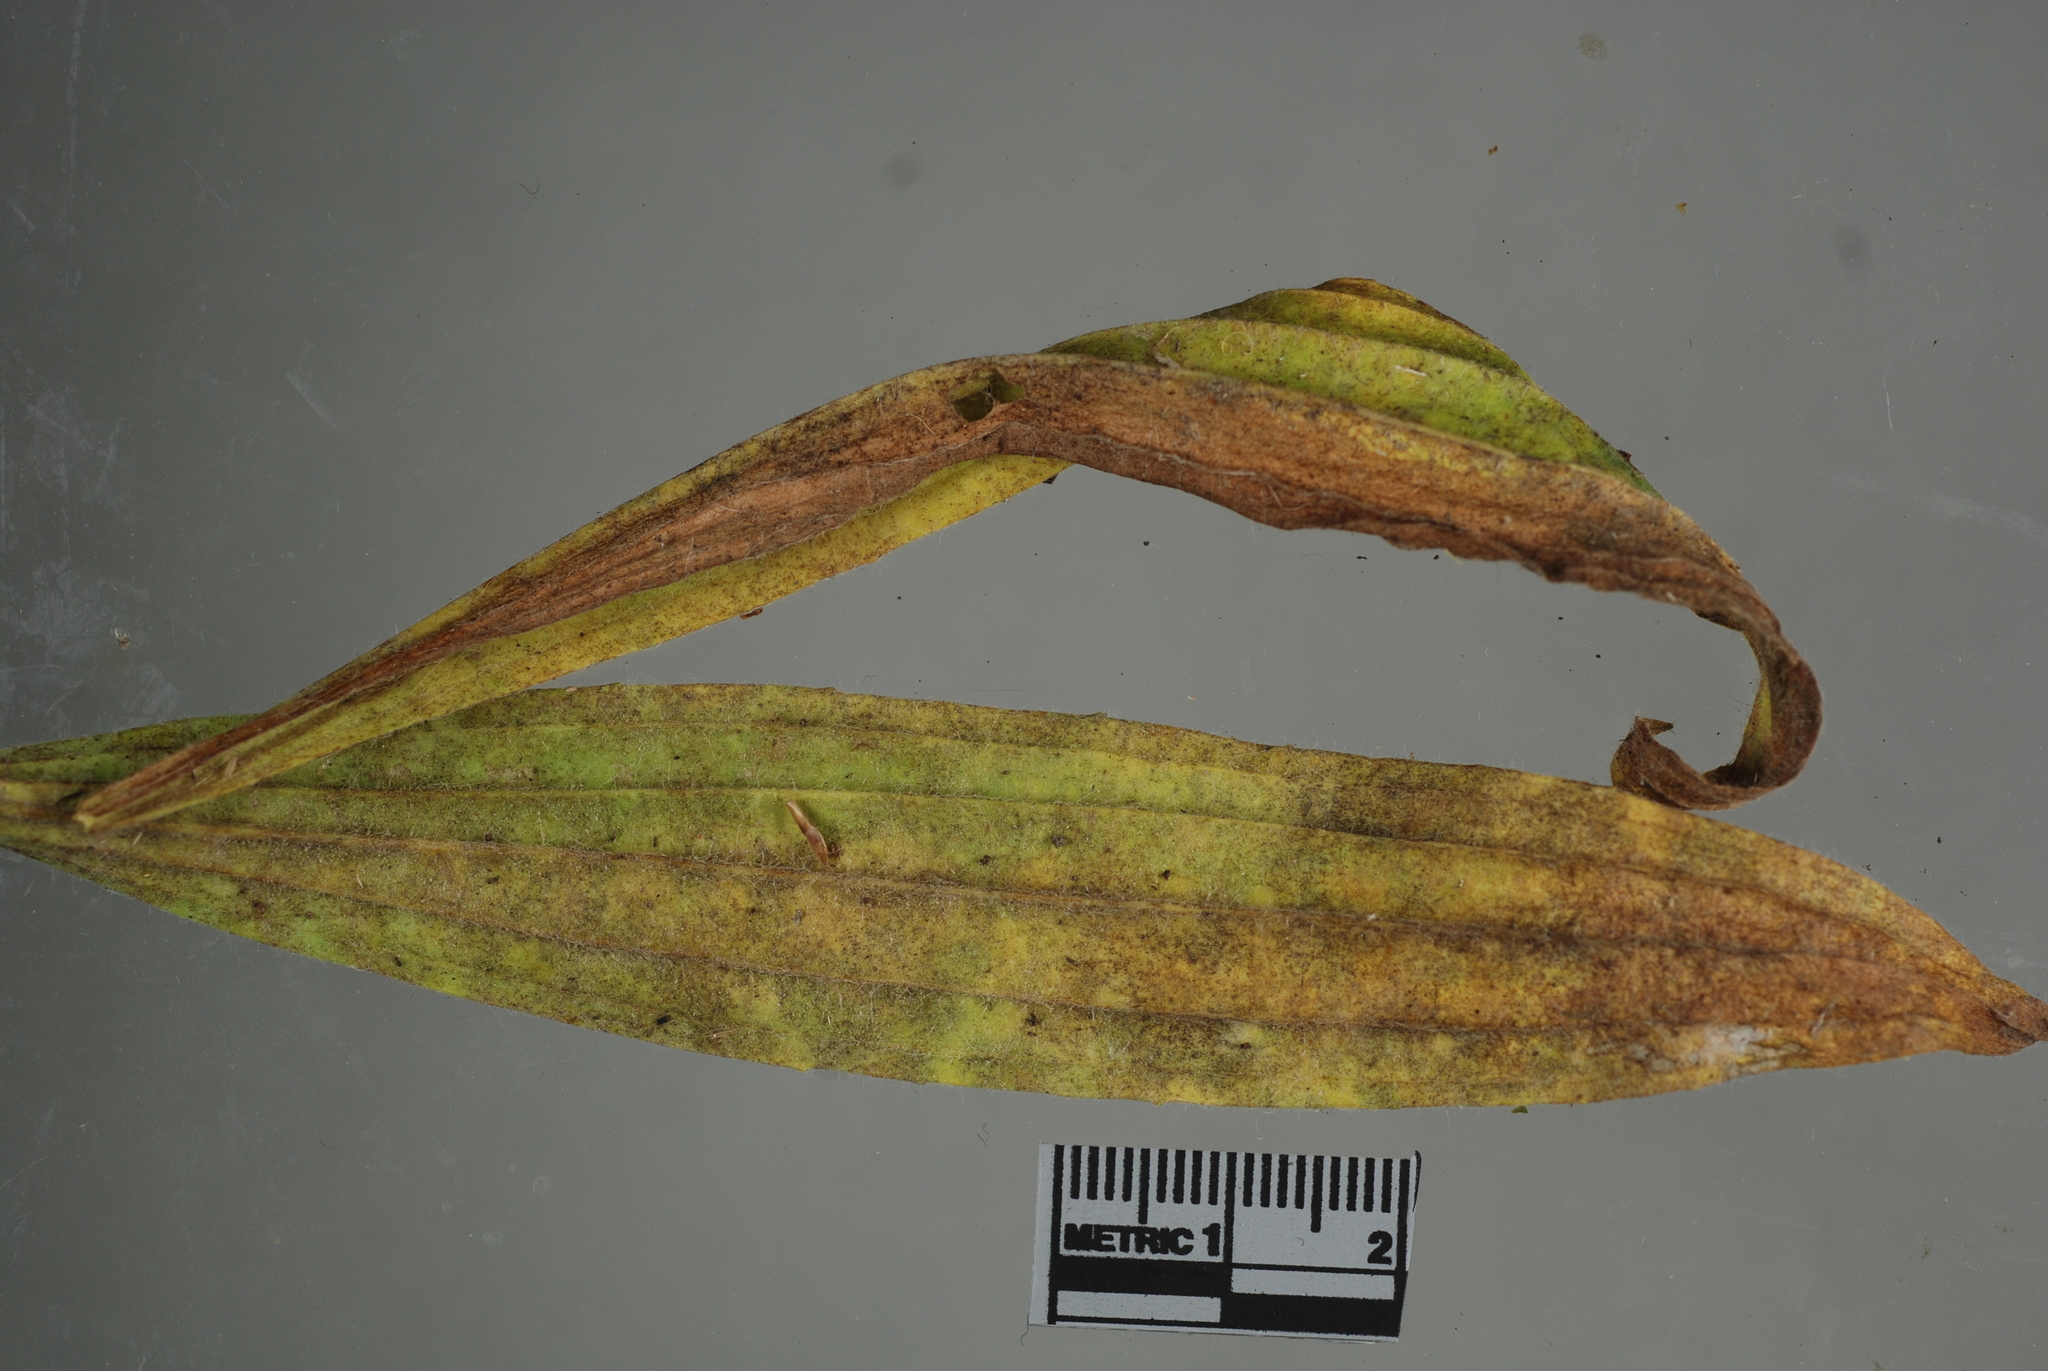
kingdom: Fungi
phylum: Ascomycota
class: Leotiomycetes
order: Helotiales
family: Erysiphaceae
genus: Podosphaera
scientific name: Podosphaera plantaginis
